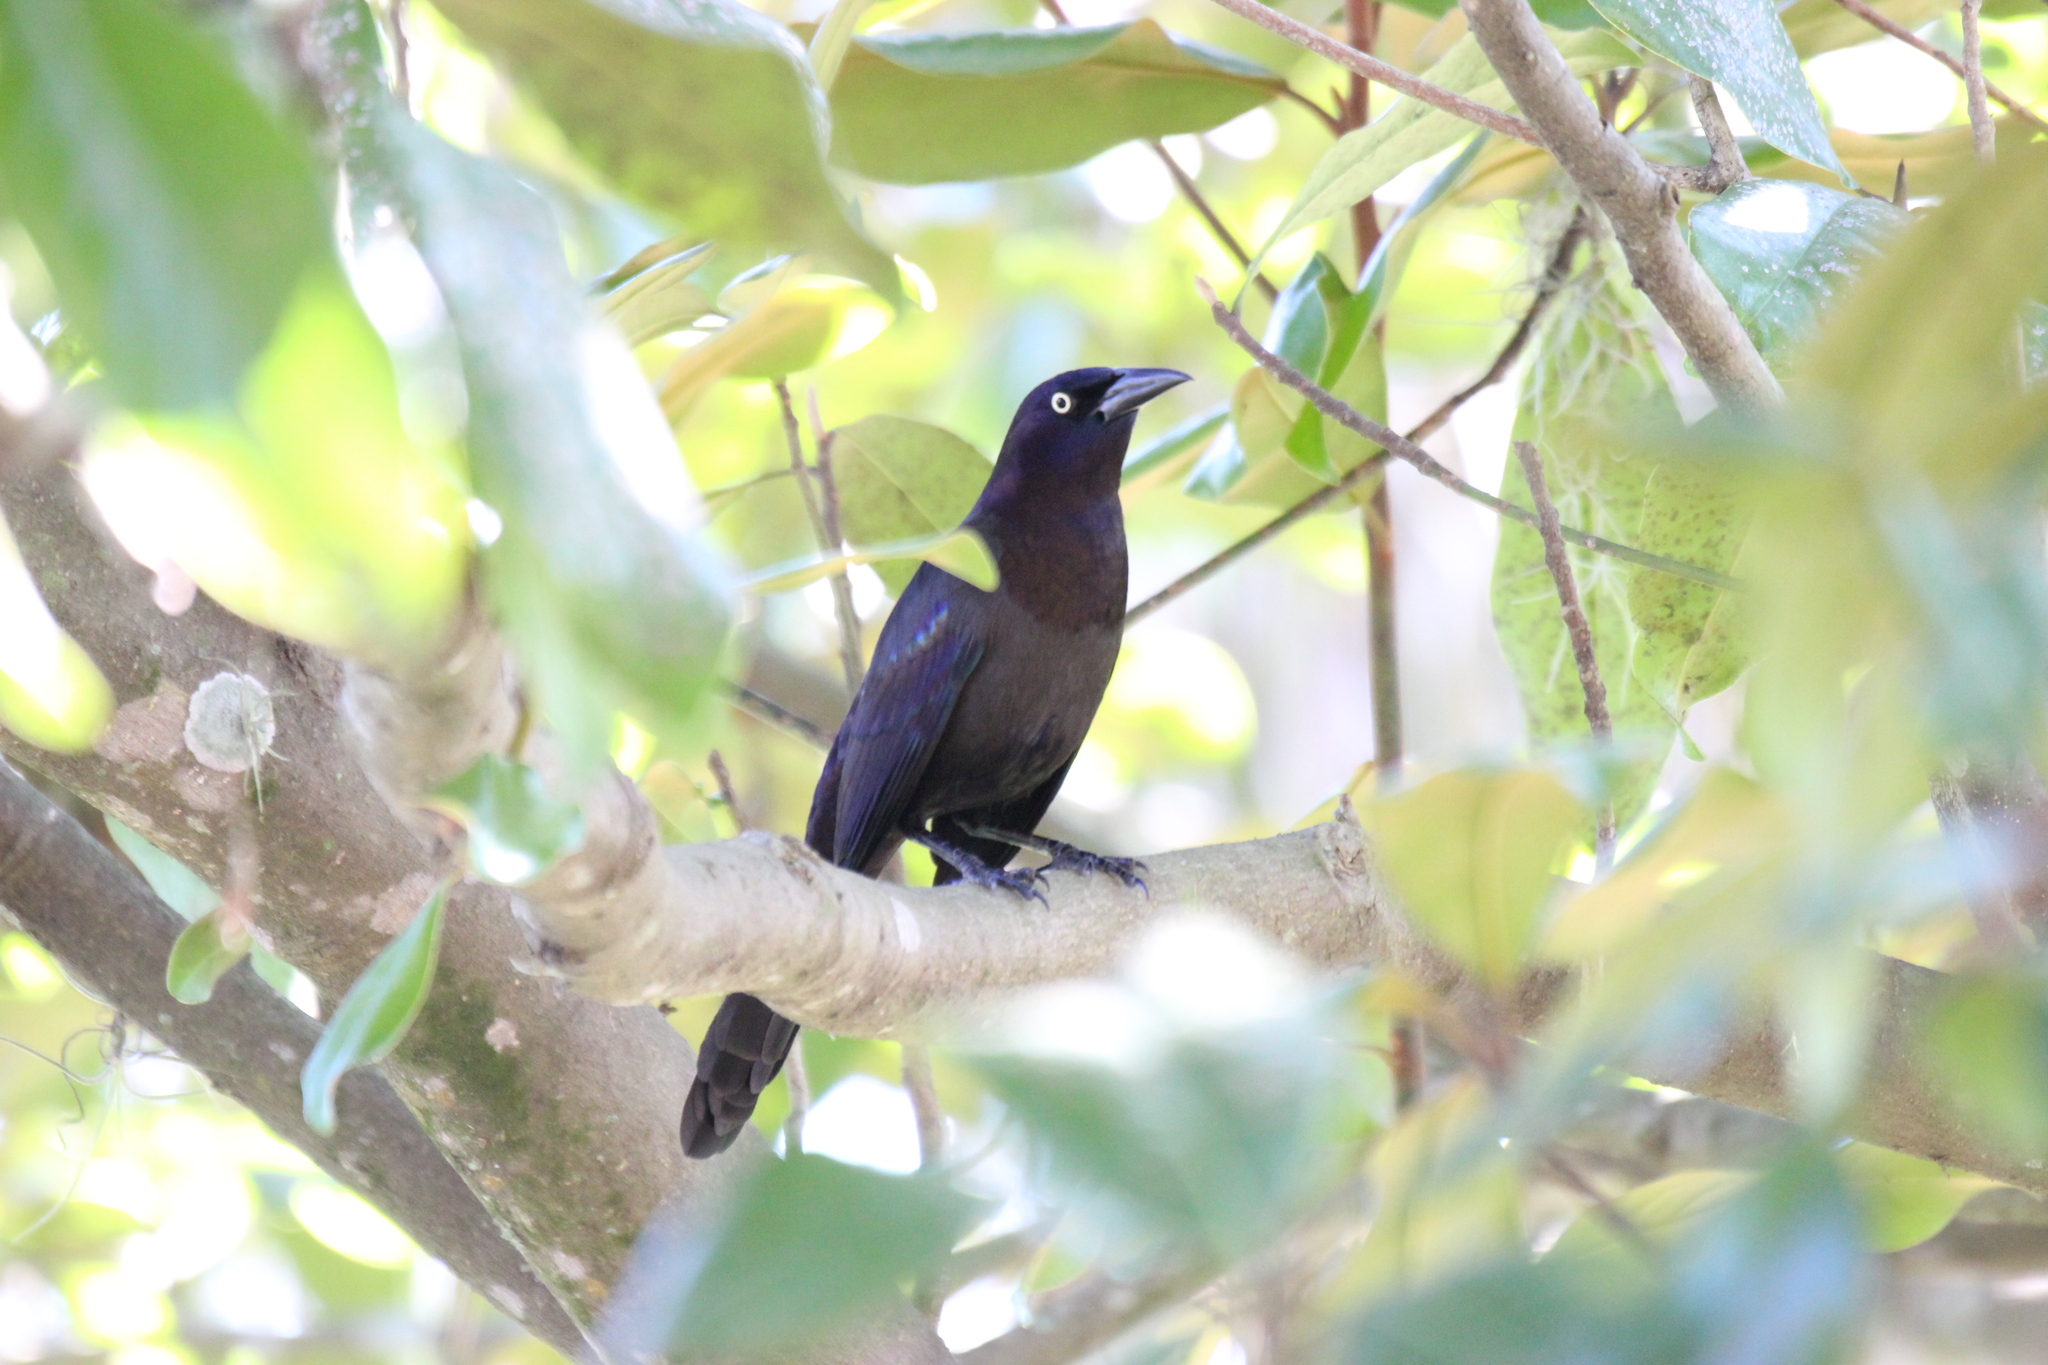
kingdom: Animalia
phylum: Chordata
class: Aves
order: Passeriformes
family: Icteridae
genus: Quiscalus
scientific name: Quiscalus quiscula
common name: Common grackle
